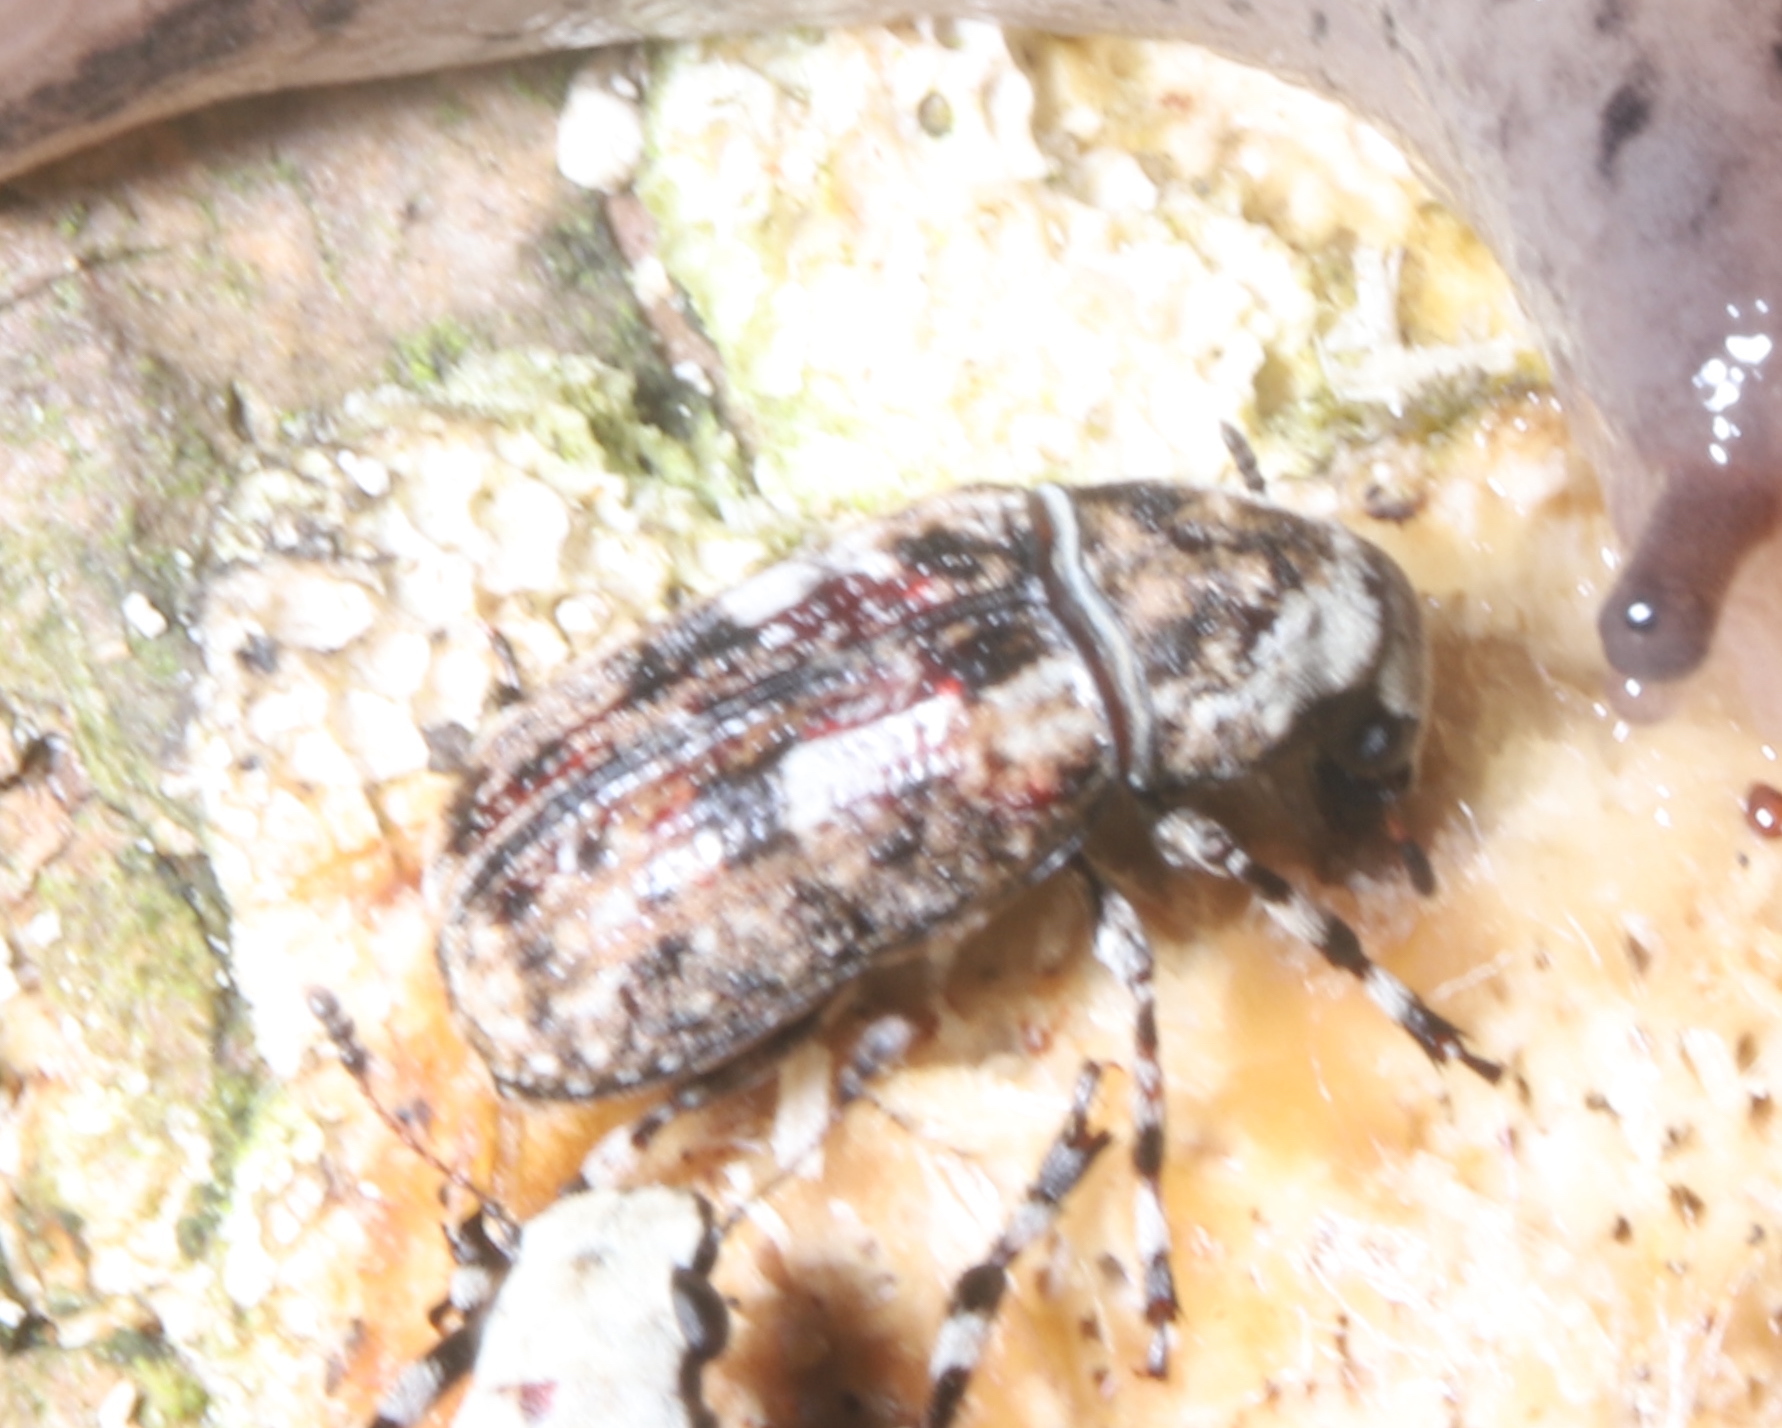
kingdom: Animalia
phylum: Arthropoda
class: Insecta
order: Coleoptera
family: Anthribidae
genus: Euparius
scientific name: Euparius marmoreus
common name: Marbled fungus weevil
